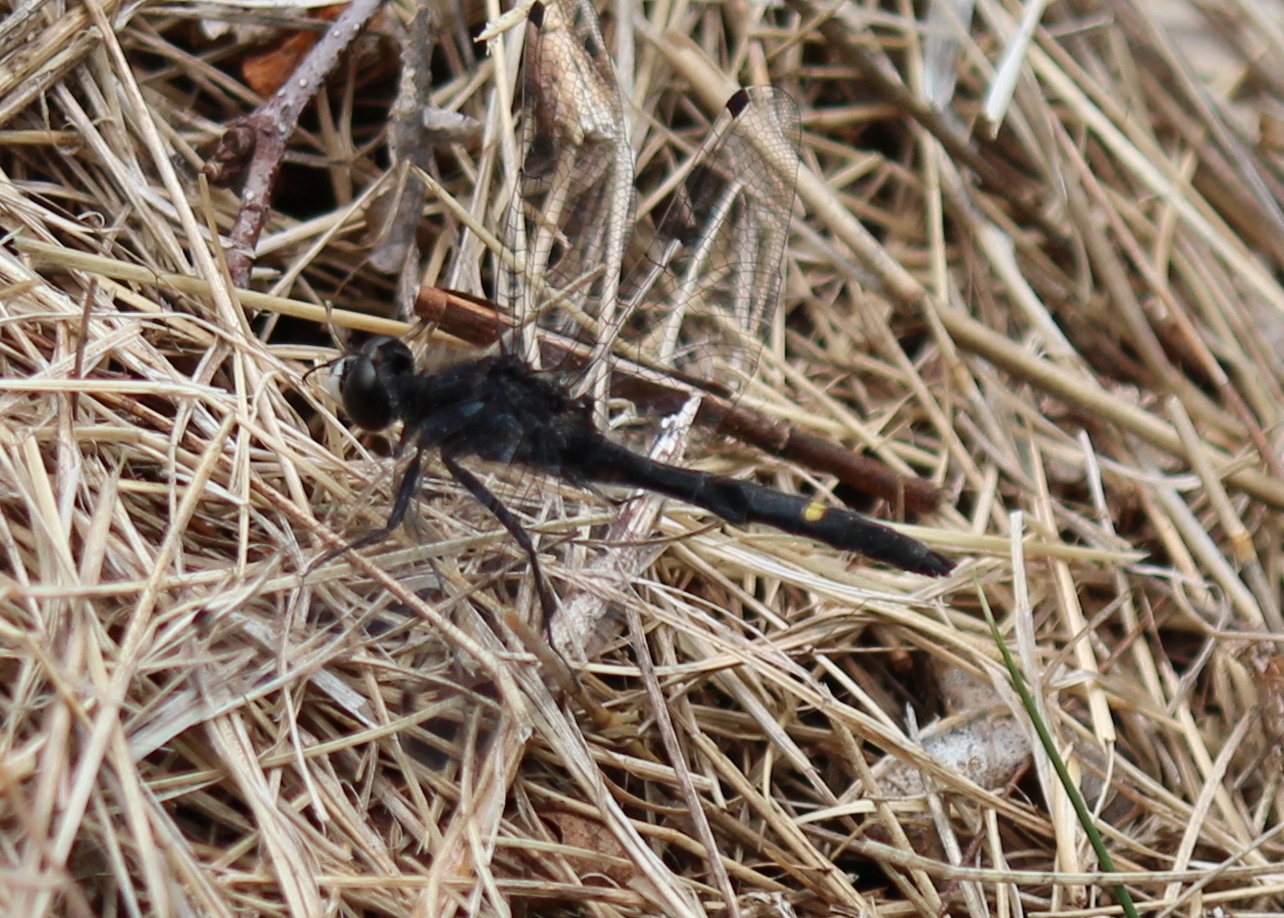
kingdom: Animalia
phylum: Arthropoda
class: Insecta
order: Odonata
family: Libellulidae
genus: Leucorrhinia
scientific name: Leucorrhinia intacta
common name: Dot-tailed whiteface
